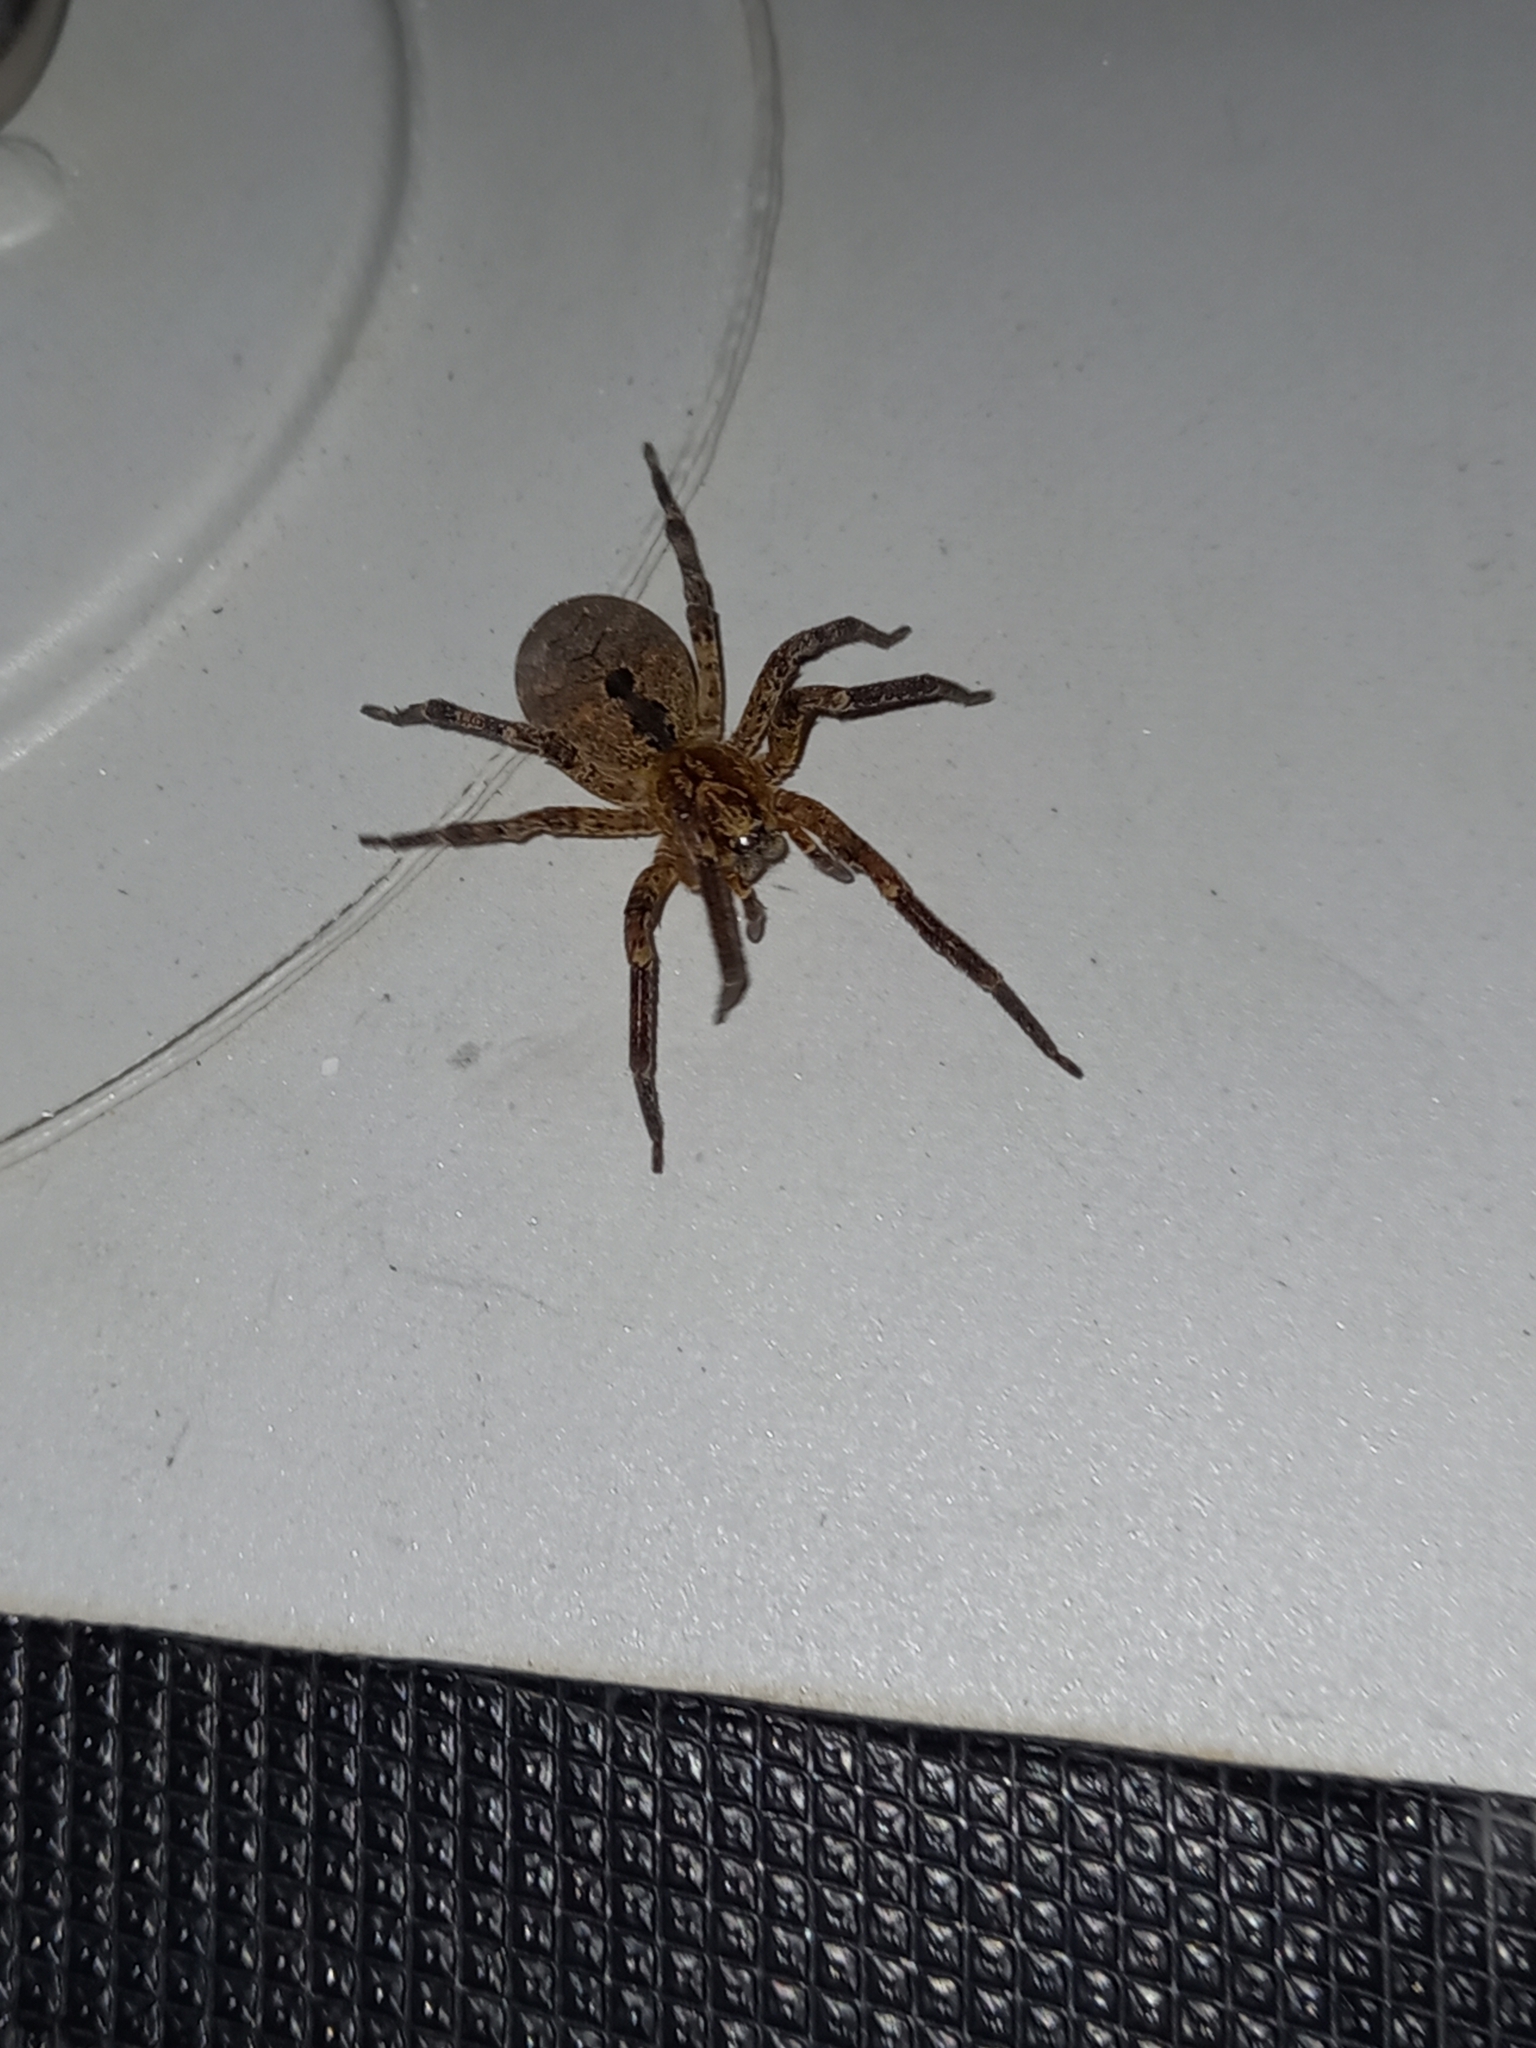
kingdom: Animalia
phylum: Arthropoda
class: Arachnida
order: Araneae
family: Zoropsidae
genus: Zoropsis
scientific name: Zoropsis spinimana
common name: Zoropsid spider
